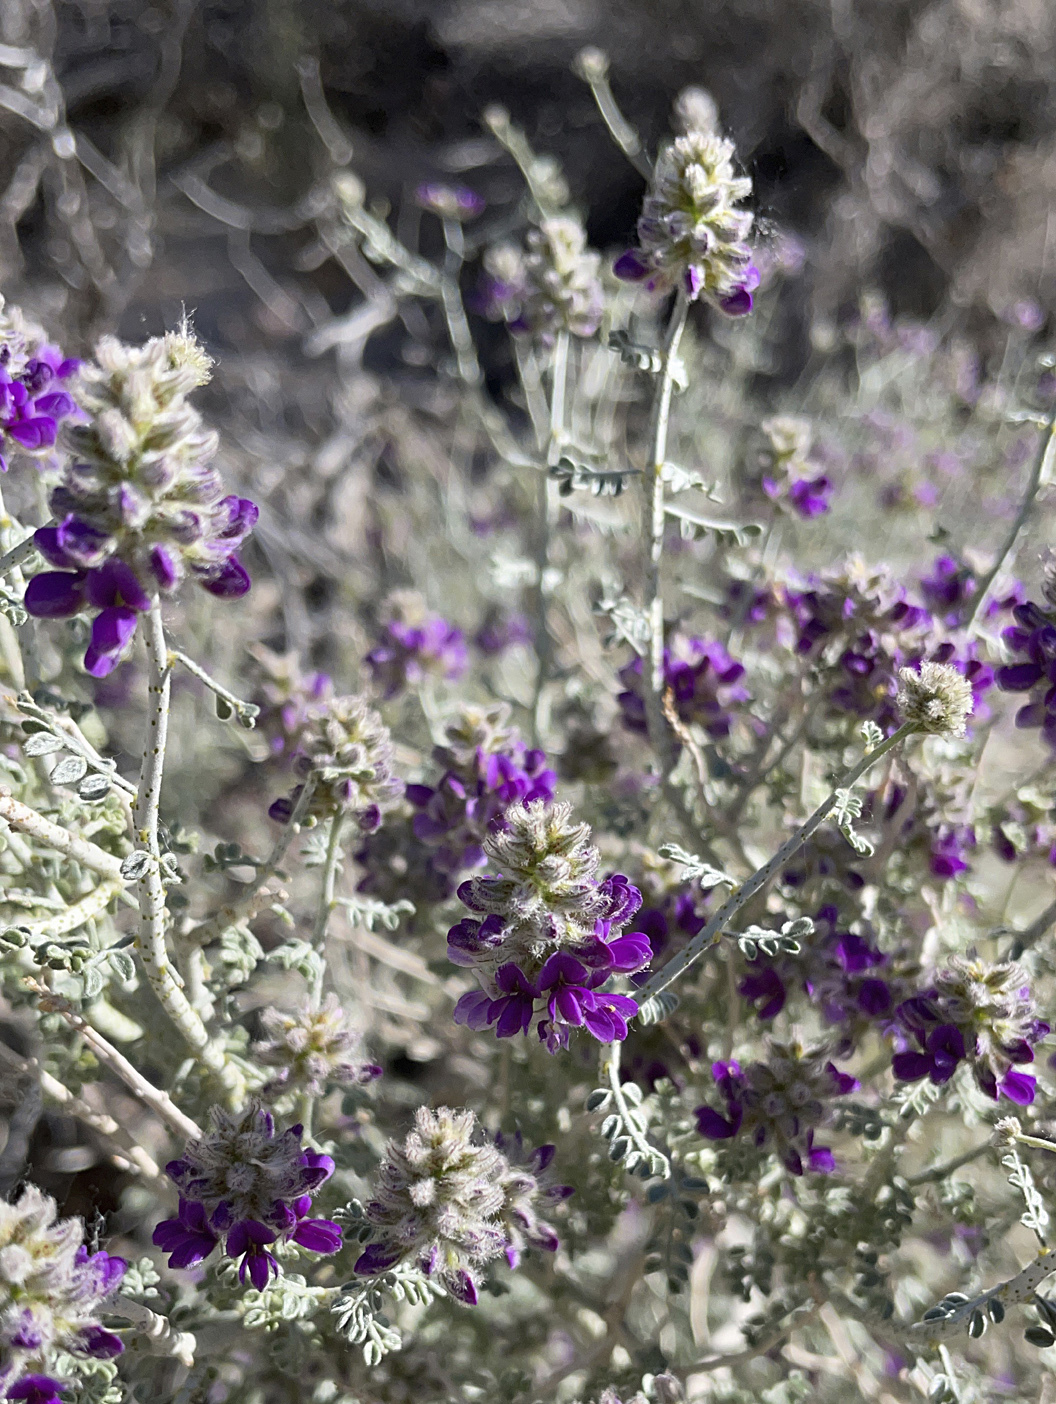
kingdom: Plantae
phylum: Tracheophyta
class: Magnoliopsida
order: Fabales
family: Fabaceae
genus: Psorothamnus
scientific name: Psorothamnus polydenius
